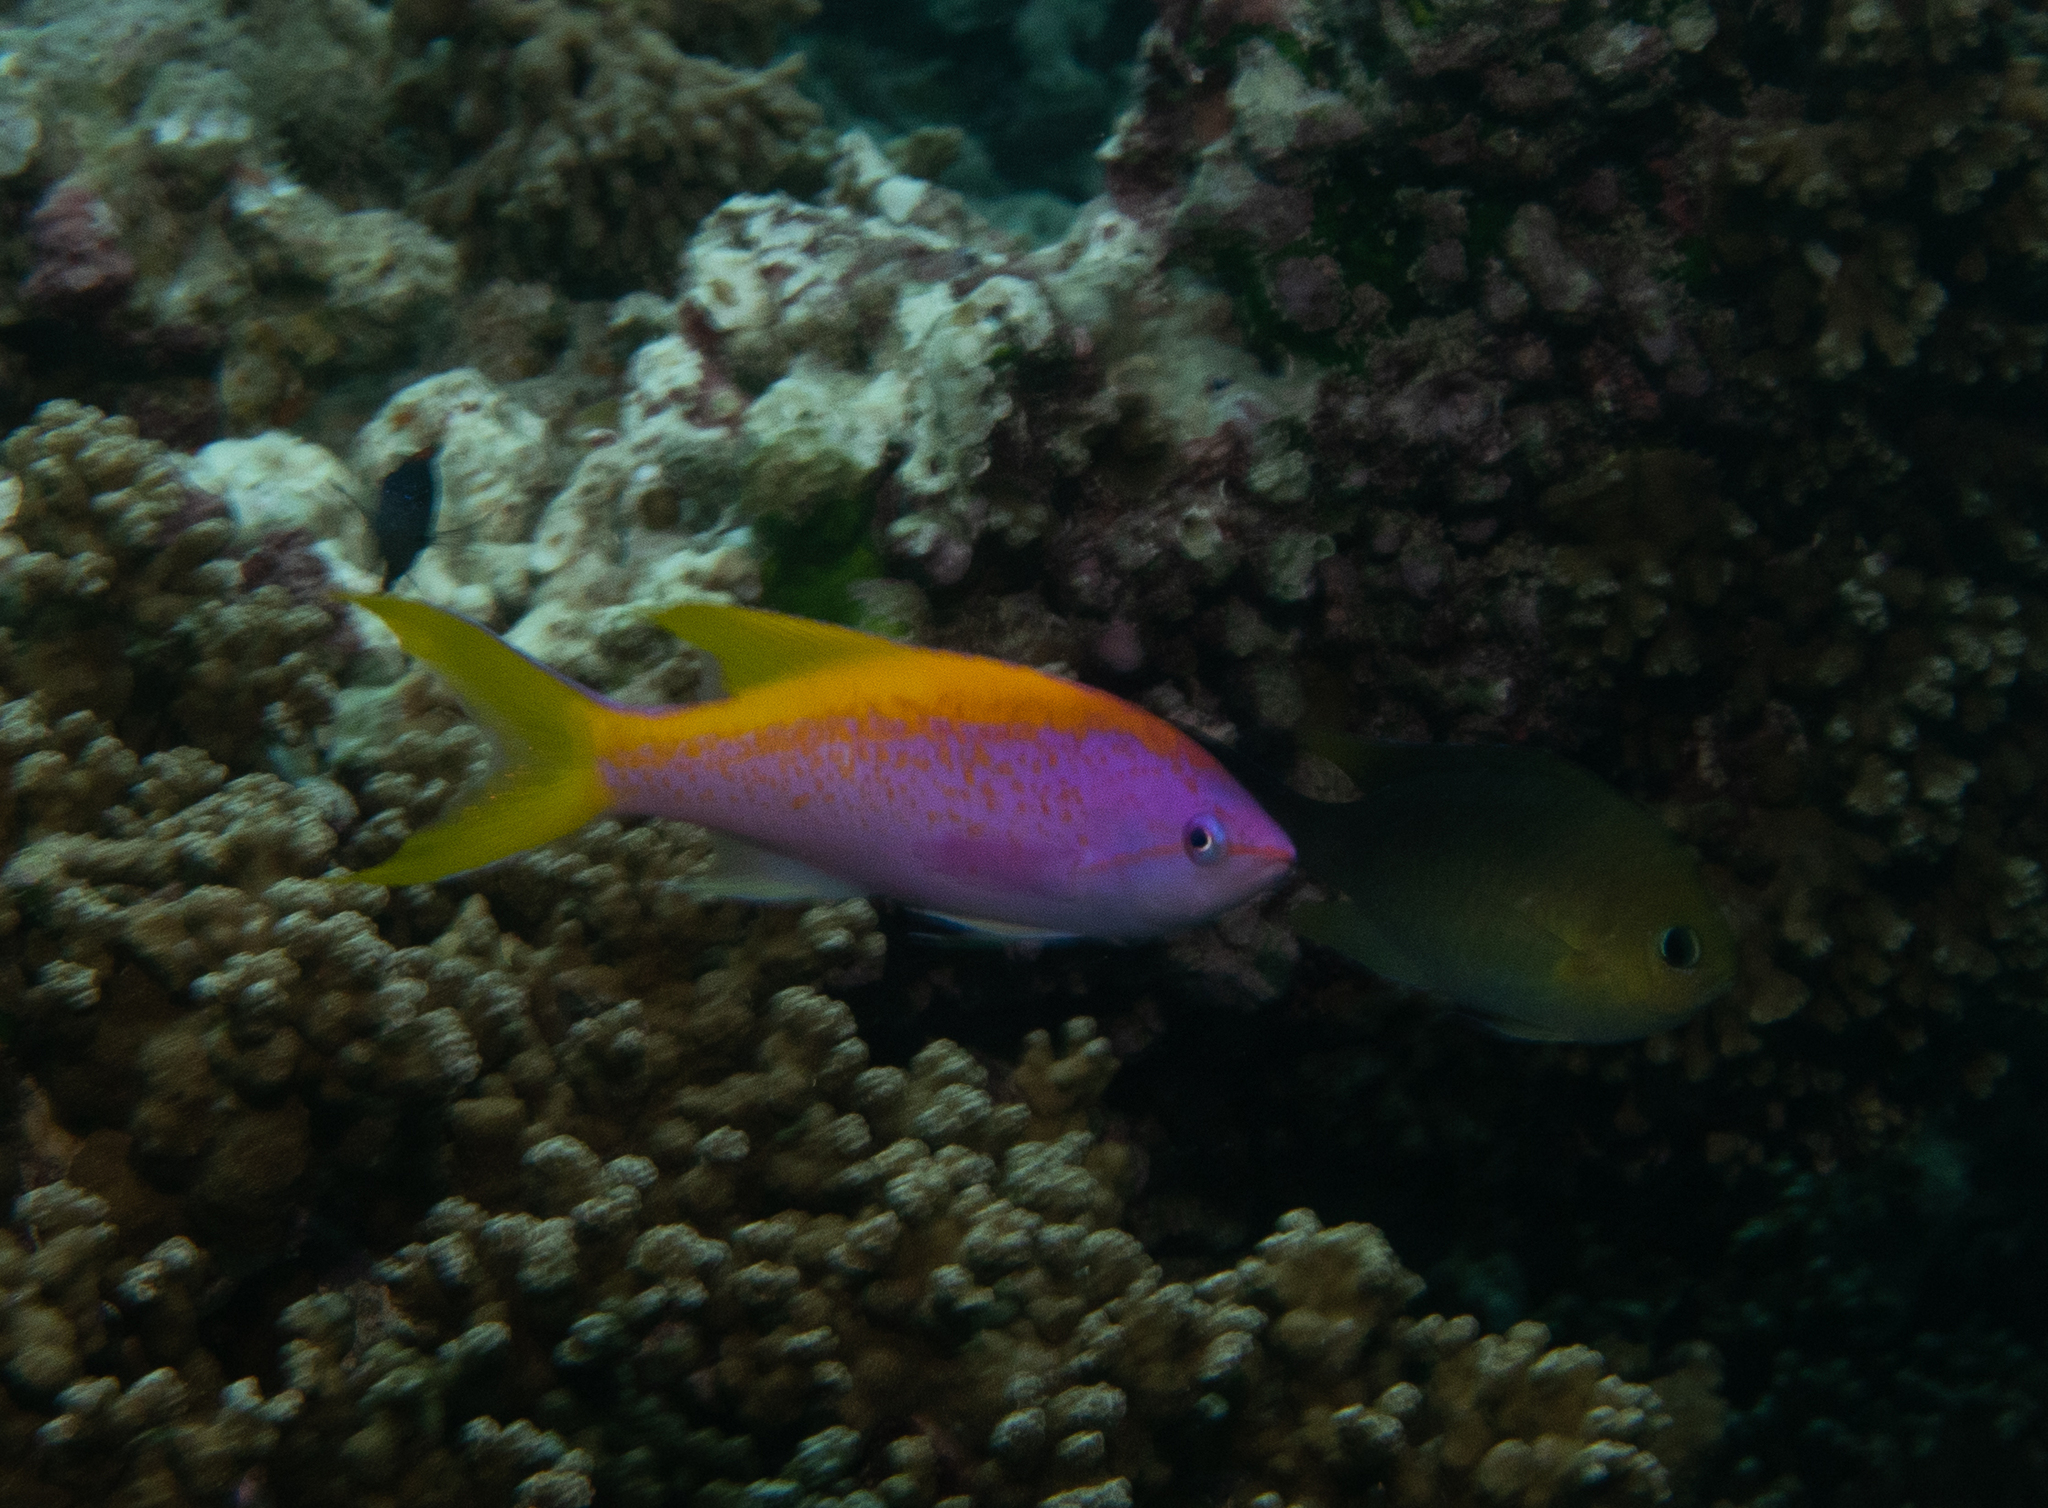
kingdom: Animalia
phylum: Chordata
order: Perciformes
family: Serranidae
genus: Pseudanthias
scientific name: Pseudanthias evansi
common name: Goldback anthias
